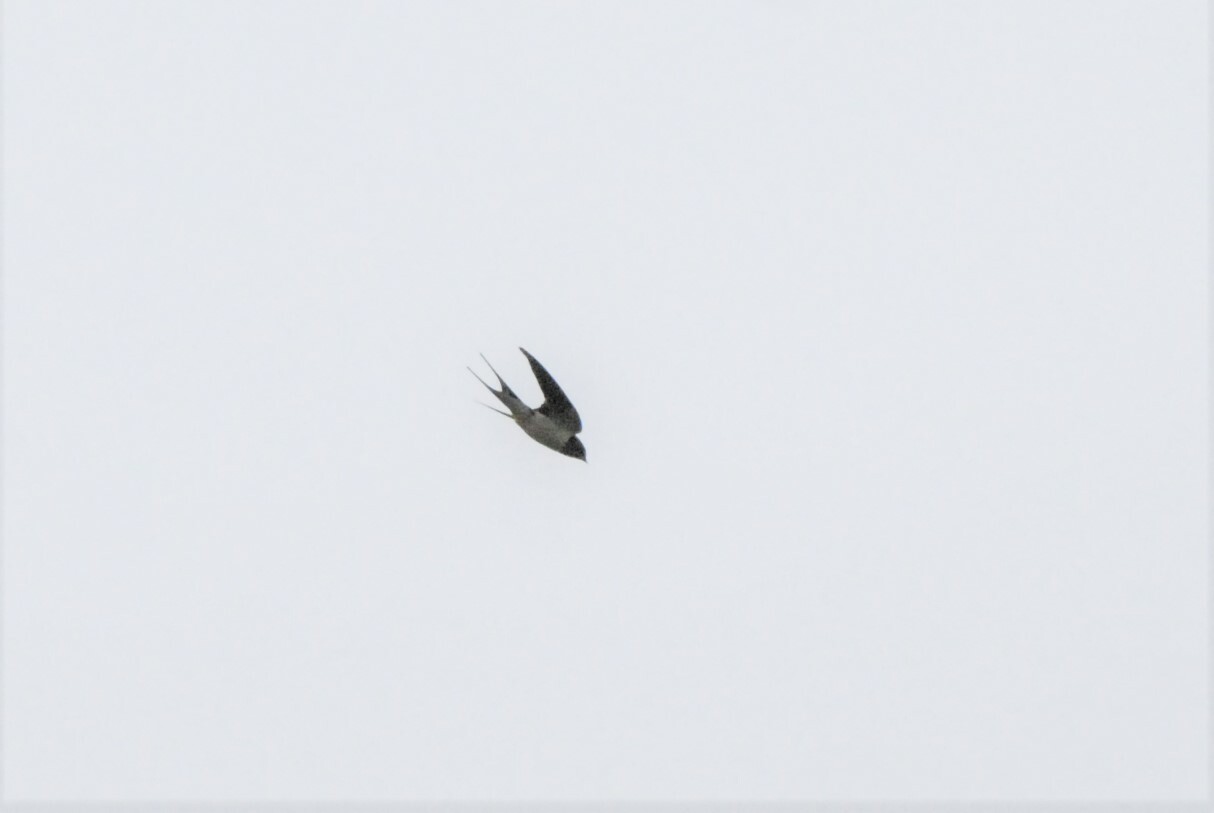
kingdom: Animalia
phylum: Chordata
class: Aves
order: Passeriformes
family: Hirundinidae
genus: Hirundo
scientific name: Hirundo rustica
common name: Barn swallow
